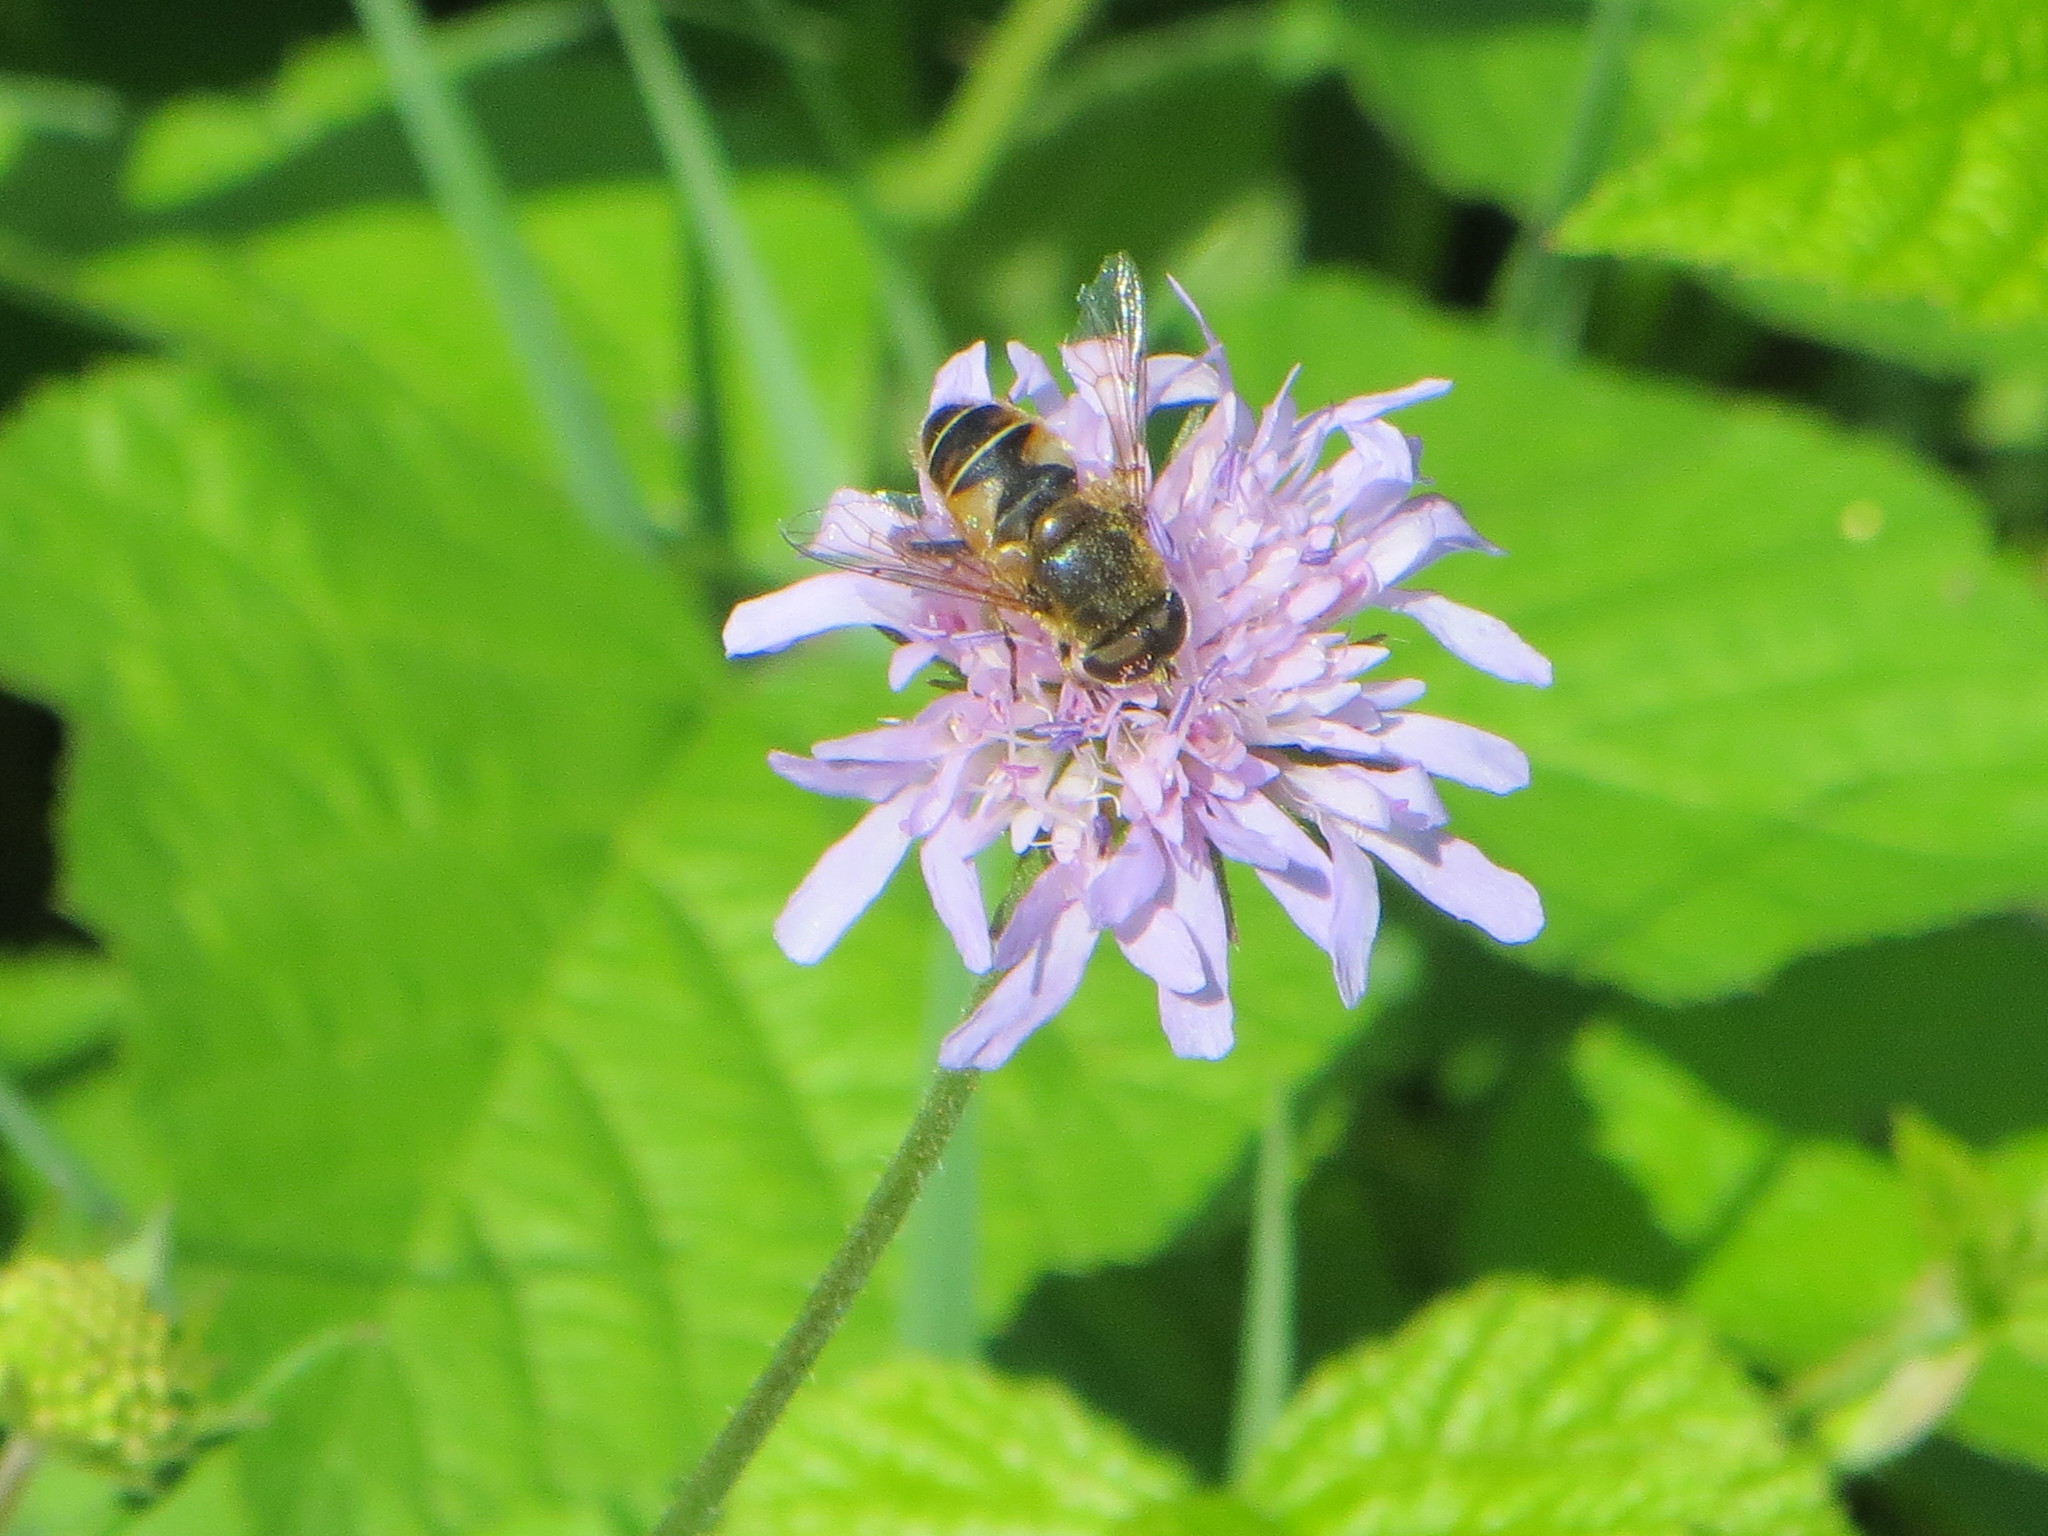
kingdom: Animalia
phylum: Arthropoda
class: Insecta
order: Diptera
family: Syrphidae
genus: Eristalis
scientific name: Eristalis nemorum
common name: Orange-spined drone fly
